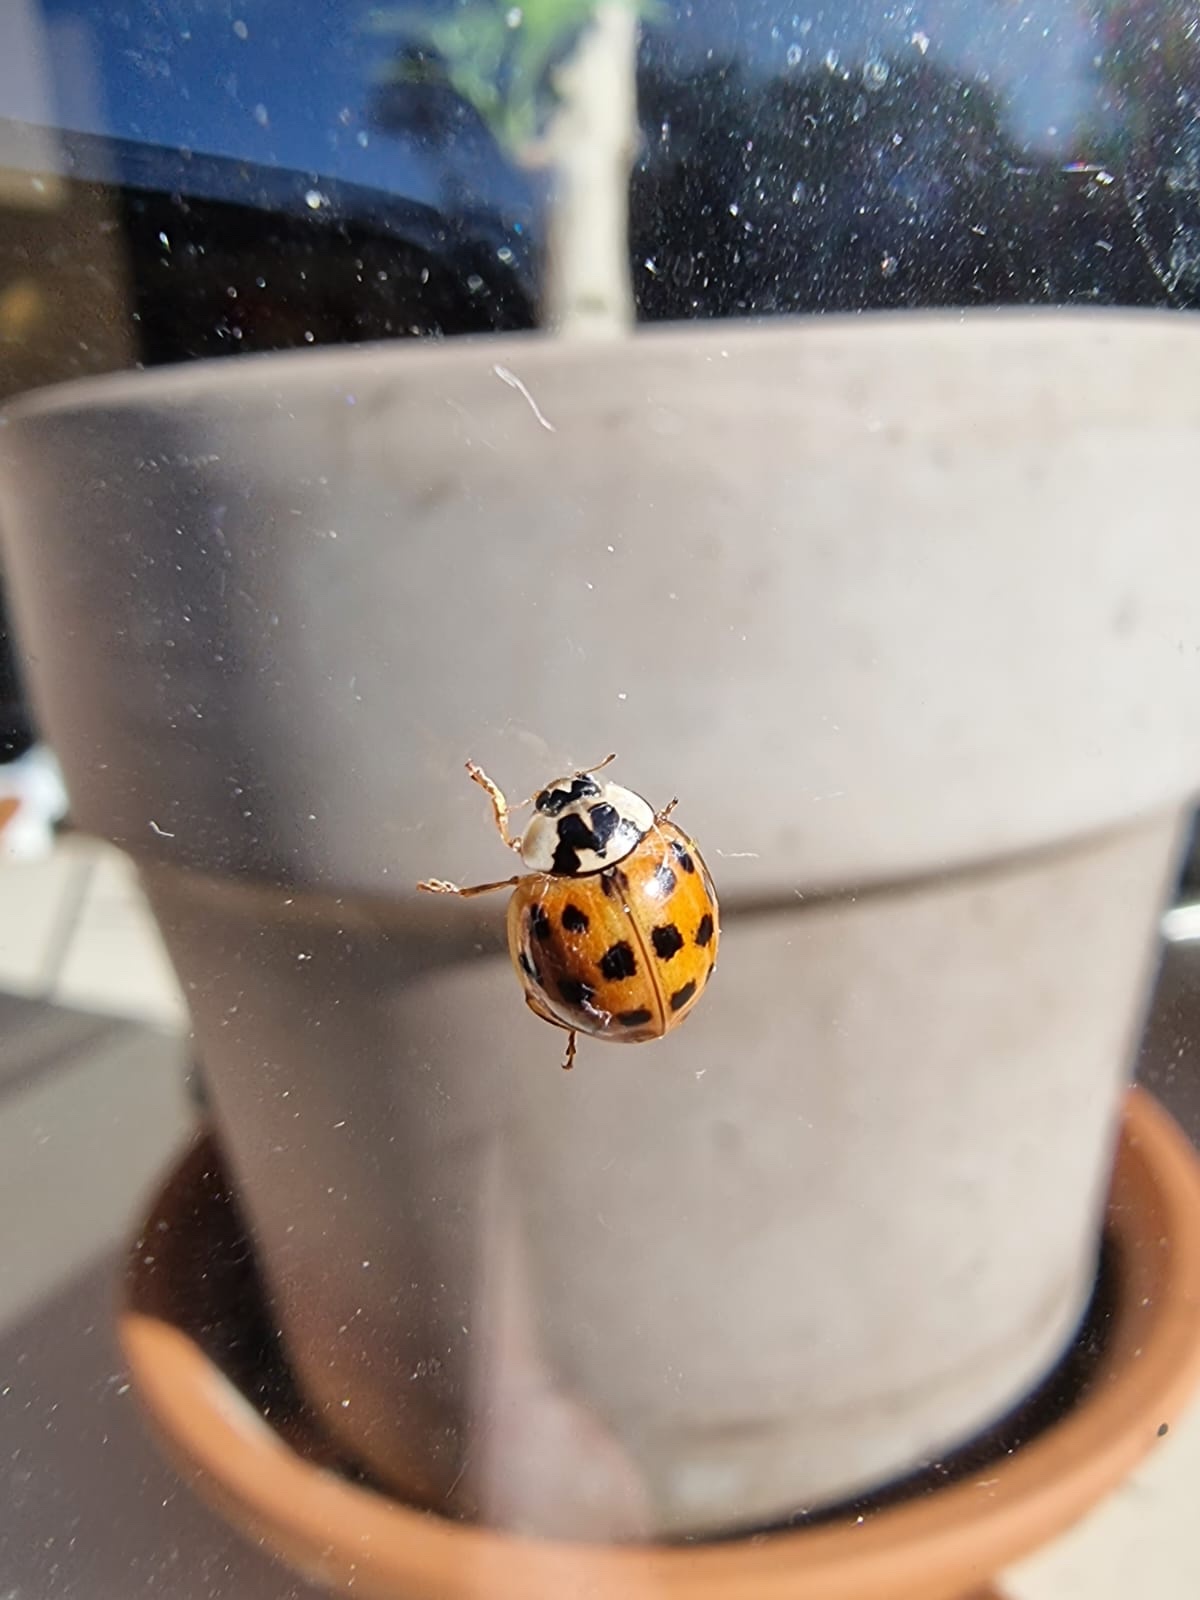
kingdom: Animalia
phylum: Arthropoda
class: Insecta
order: Coleoptera
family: Coccinellidae
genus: Harmonia
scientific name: Harmonia axyridis
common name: Harlequin ladybird
